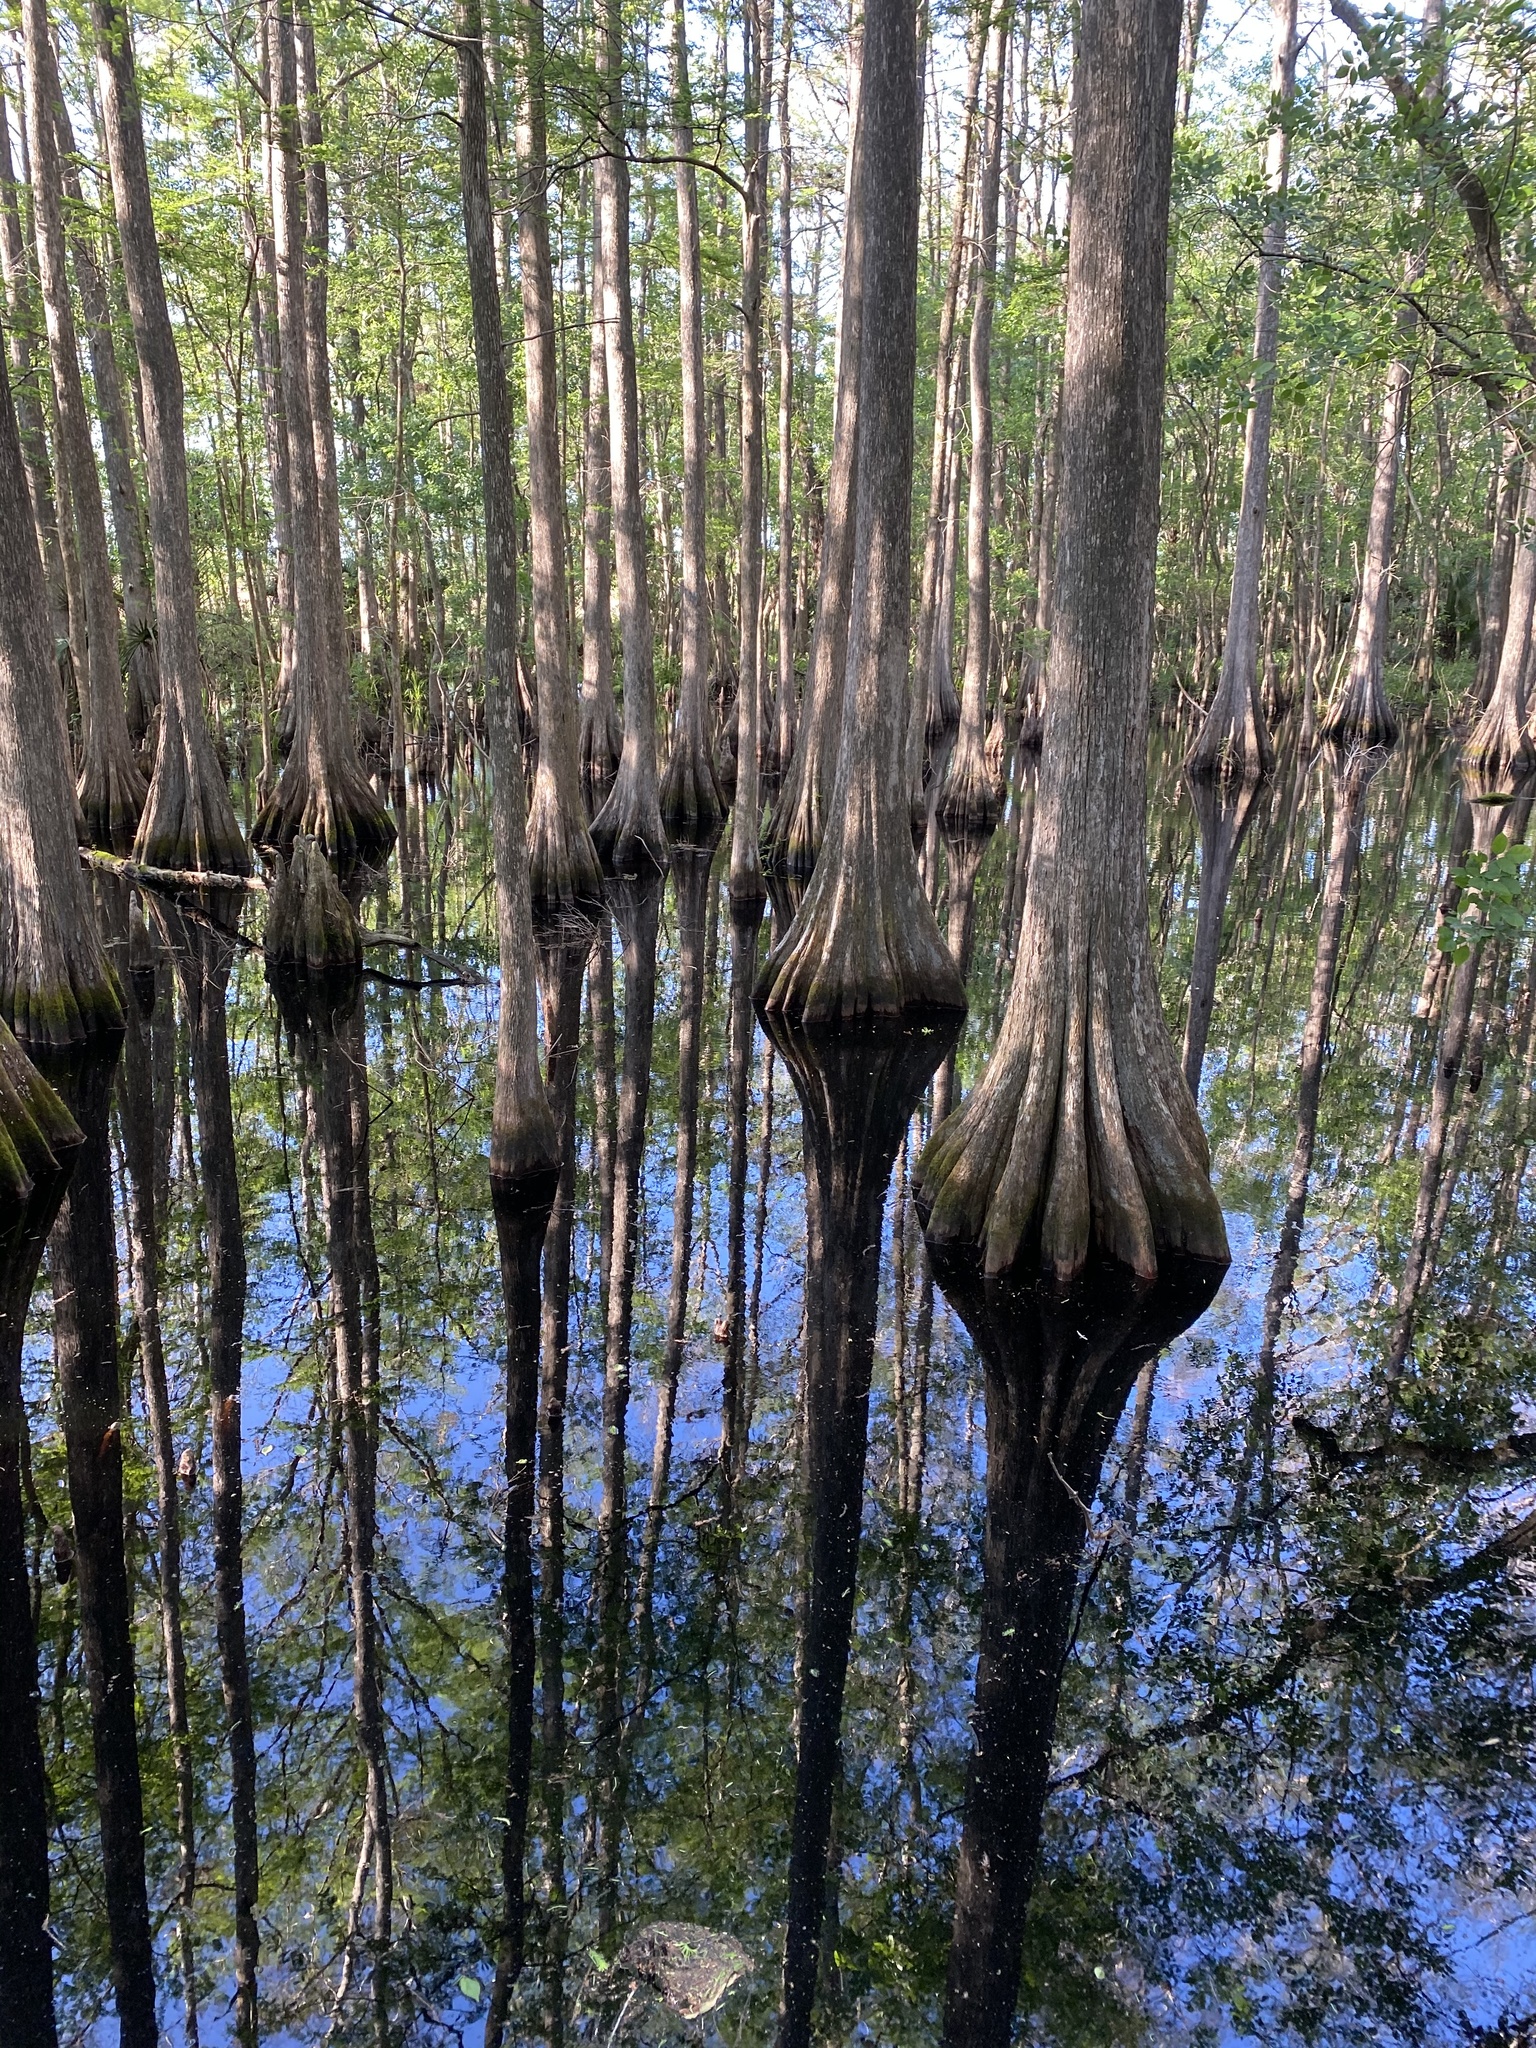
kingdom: Plantae
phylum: Tracheophyta
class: Pinopsida
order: Pinales
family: Cupressaceae
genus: Taxodium
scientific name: Taxodium distichum
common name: Bald cypress
